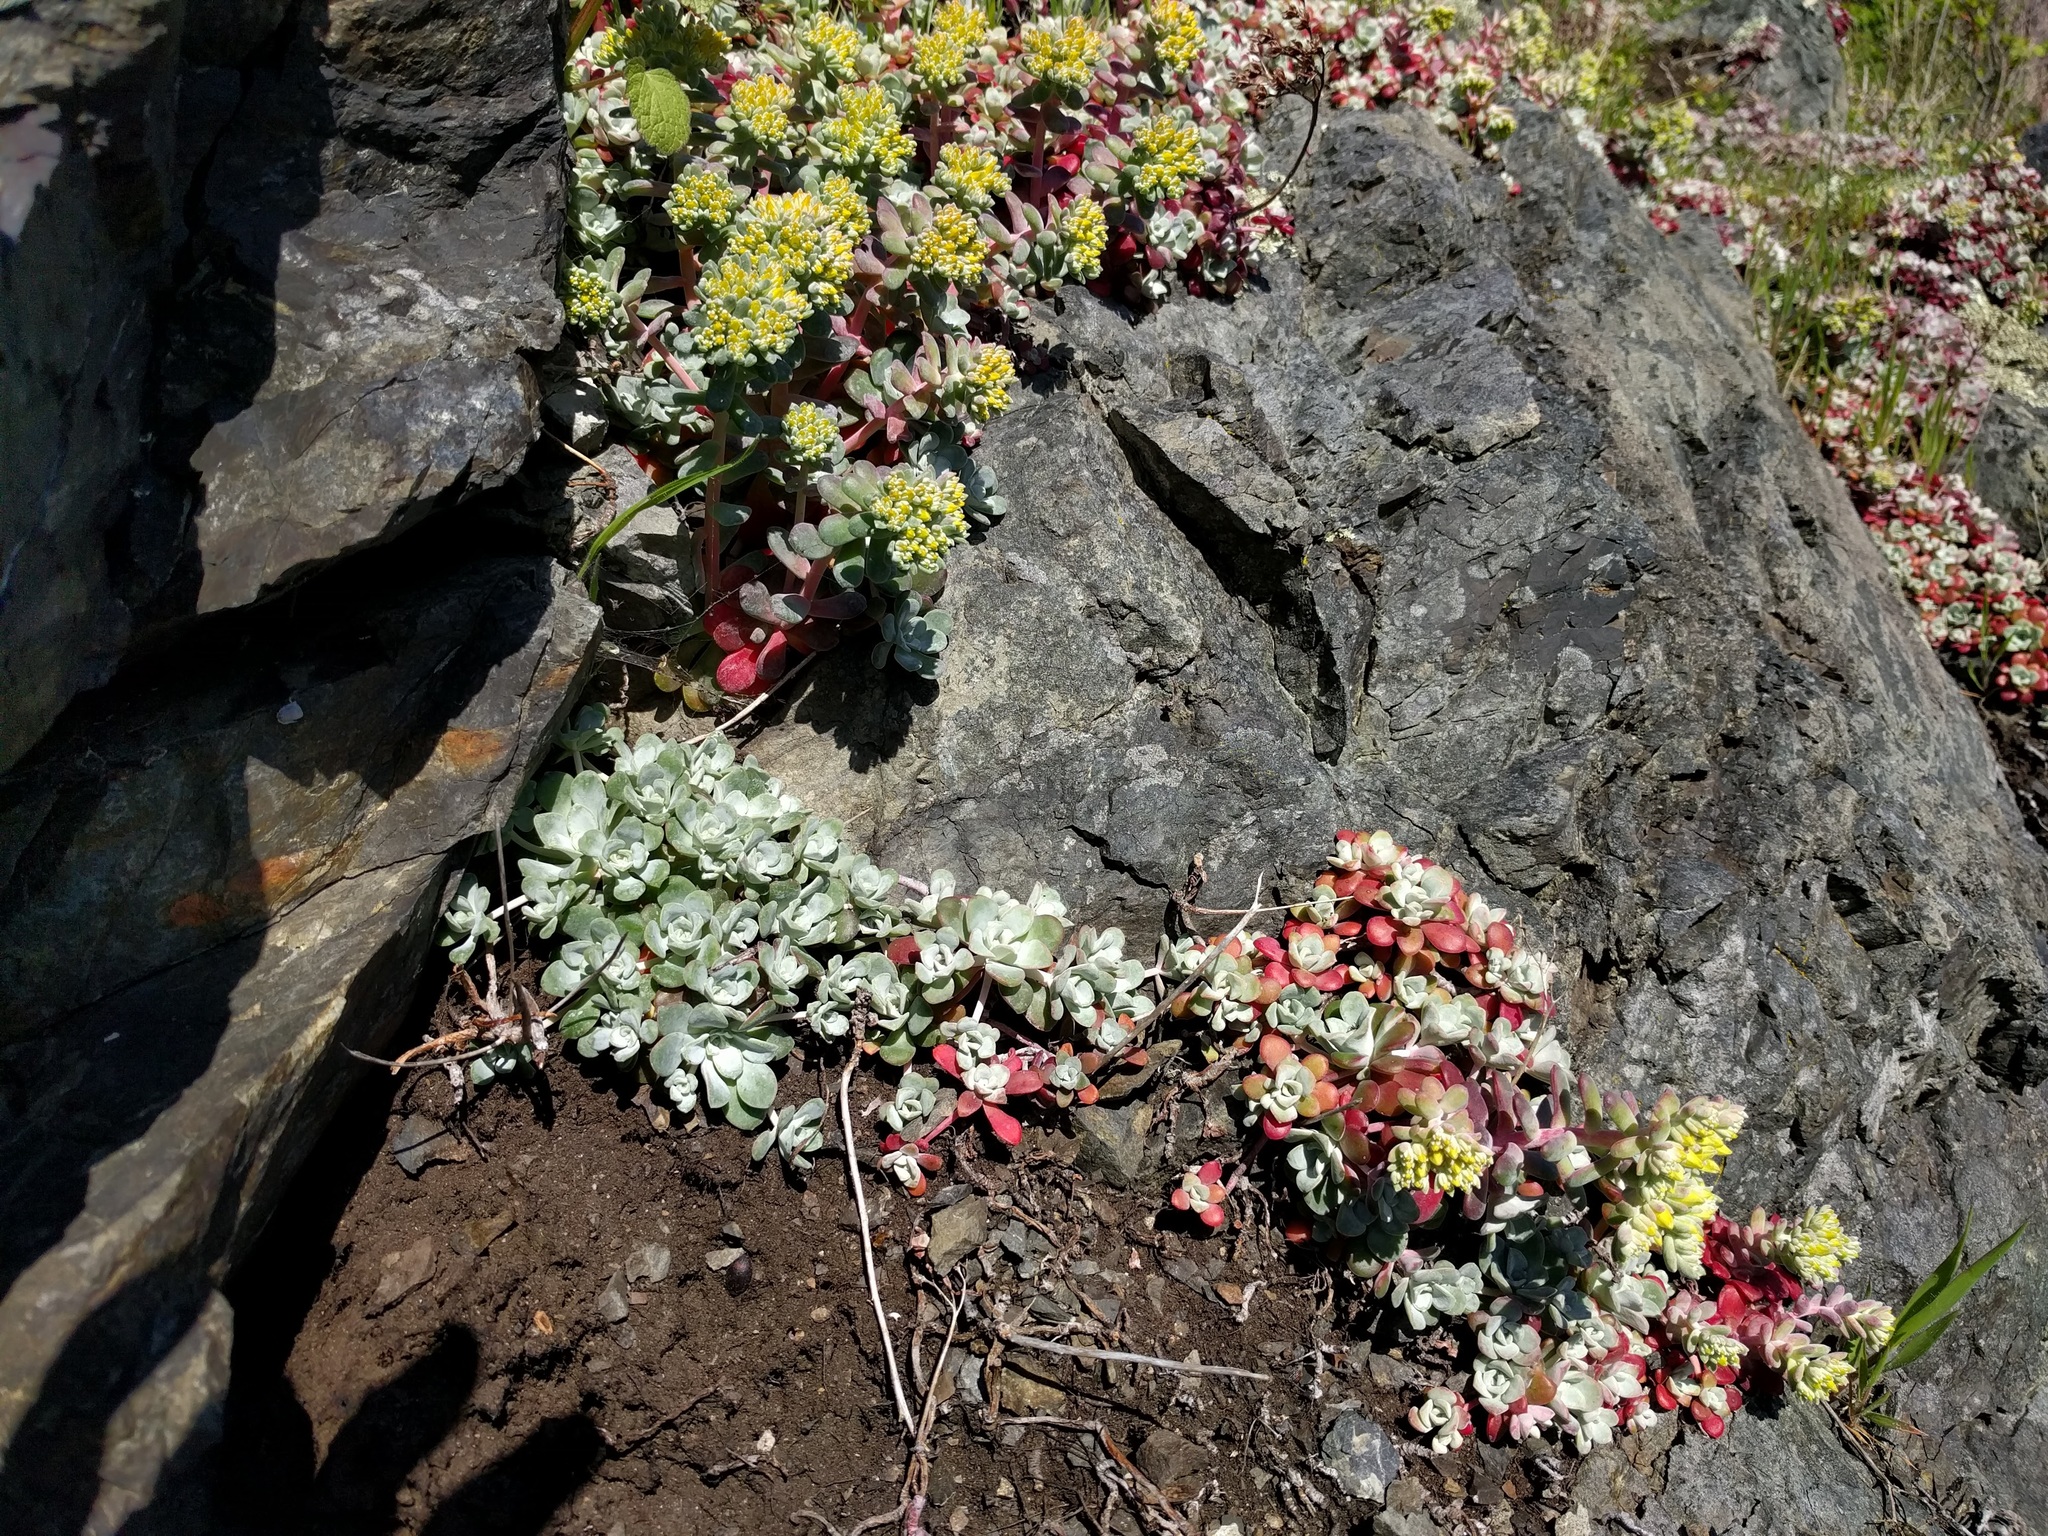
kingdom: Plantae
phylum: Tracheophyta
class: Magnoliopsida
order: Saxifragales
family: Crassulaceae
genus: Sedum
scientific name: Sedum spathulifolium
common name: Colorado stonecrop
